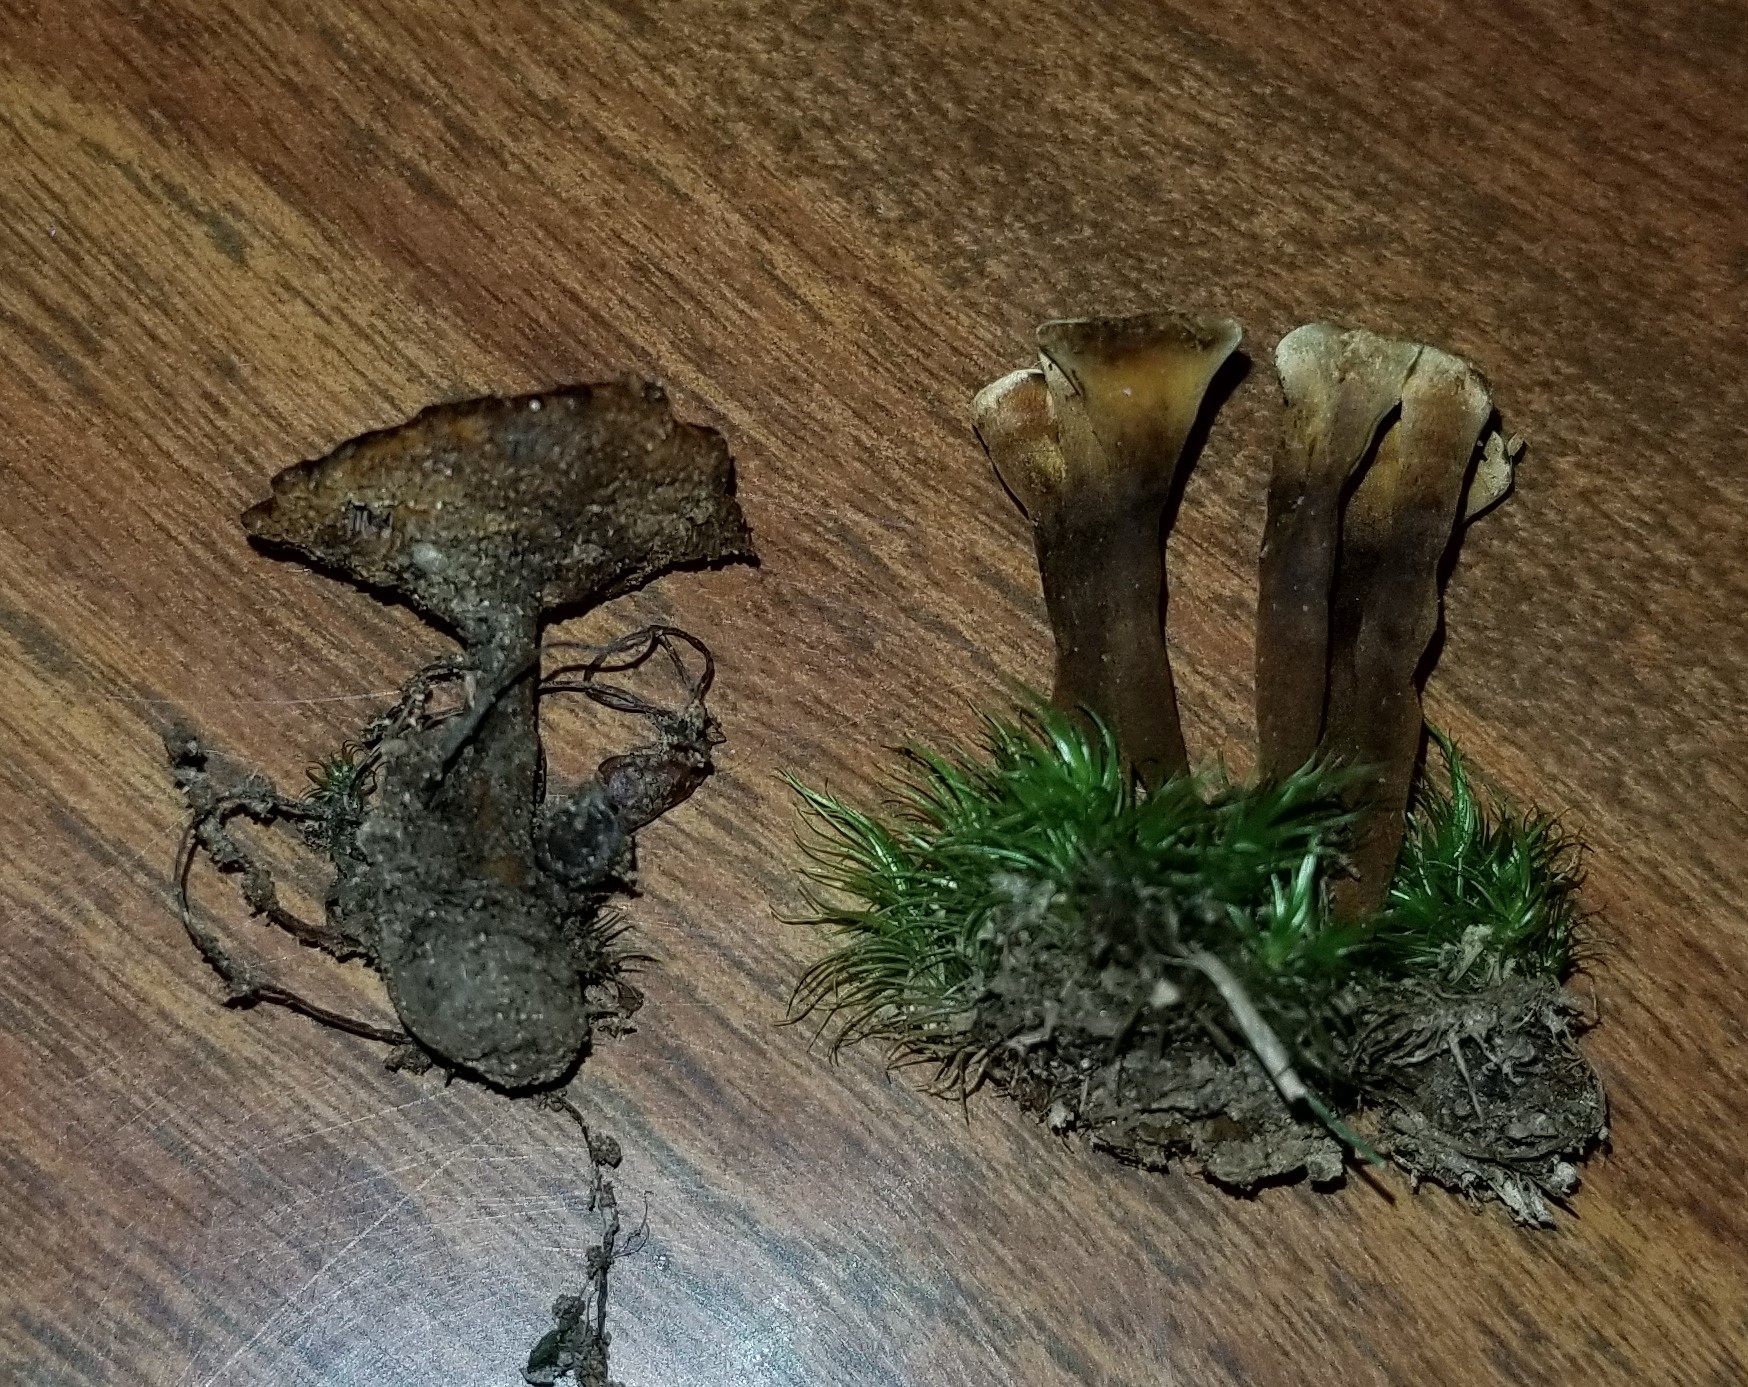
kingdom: Fungi
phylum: Basidiomycota
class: Agaricomycetes
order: Hymenochaetales
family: Hymenochaetaceae
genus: Coltricia
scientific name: Coltricia cinnamomea
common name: Shiny cinnamon polypore
